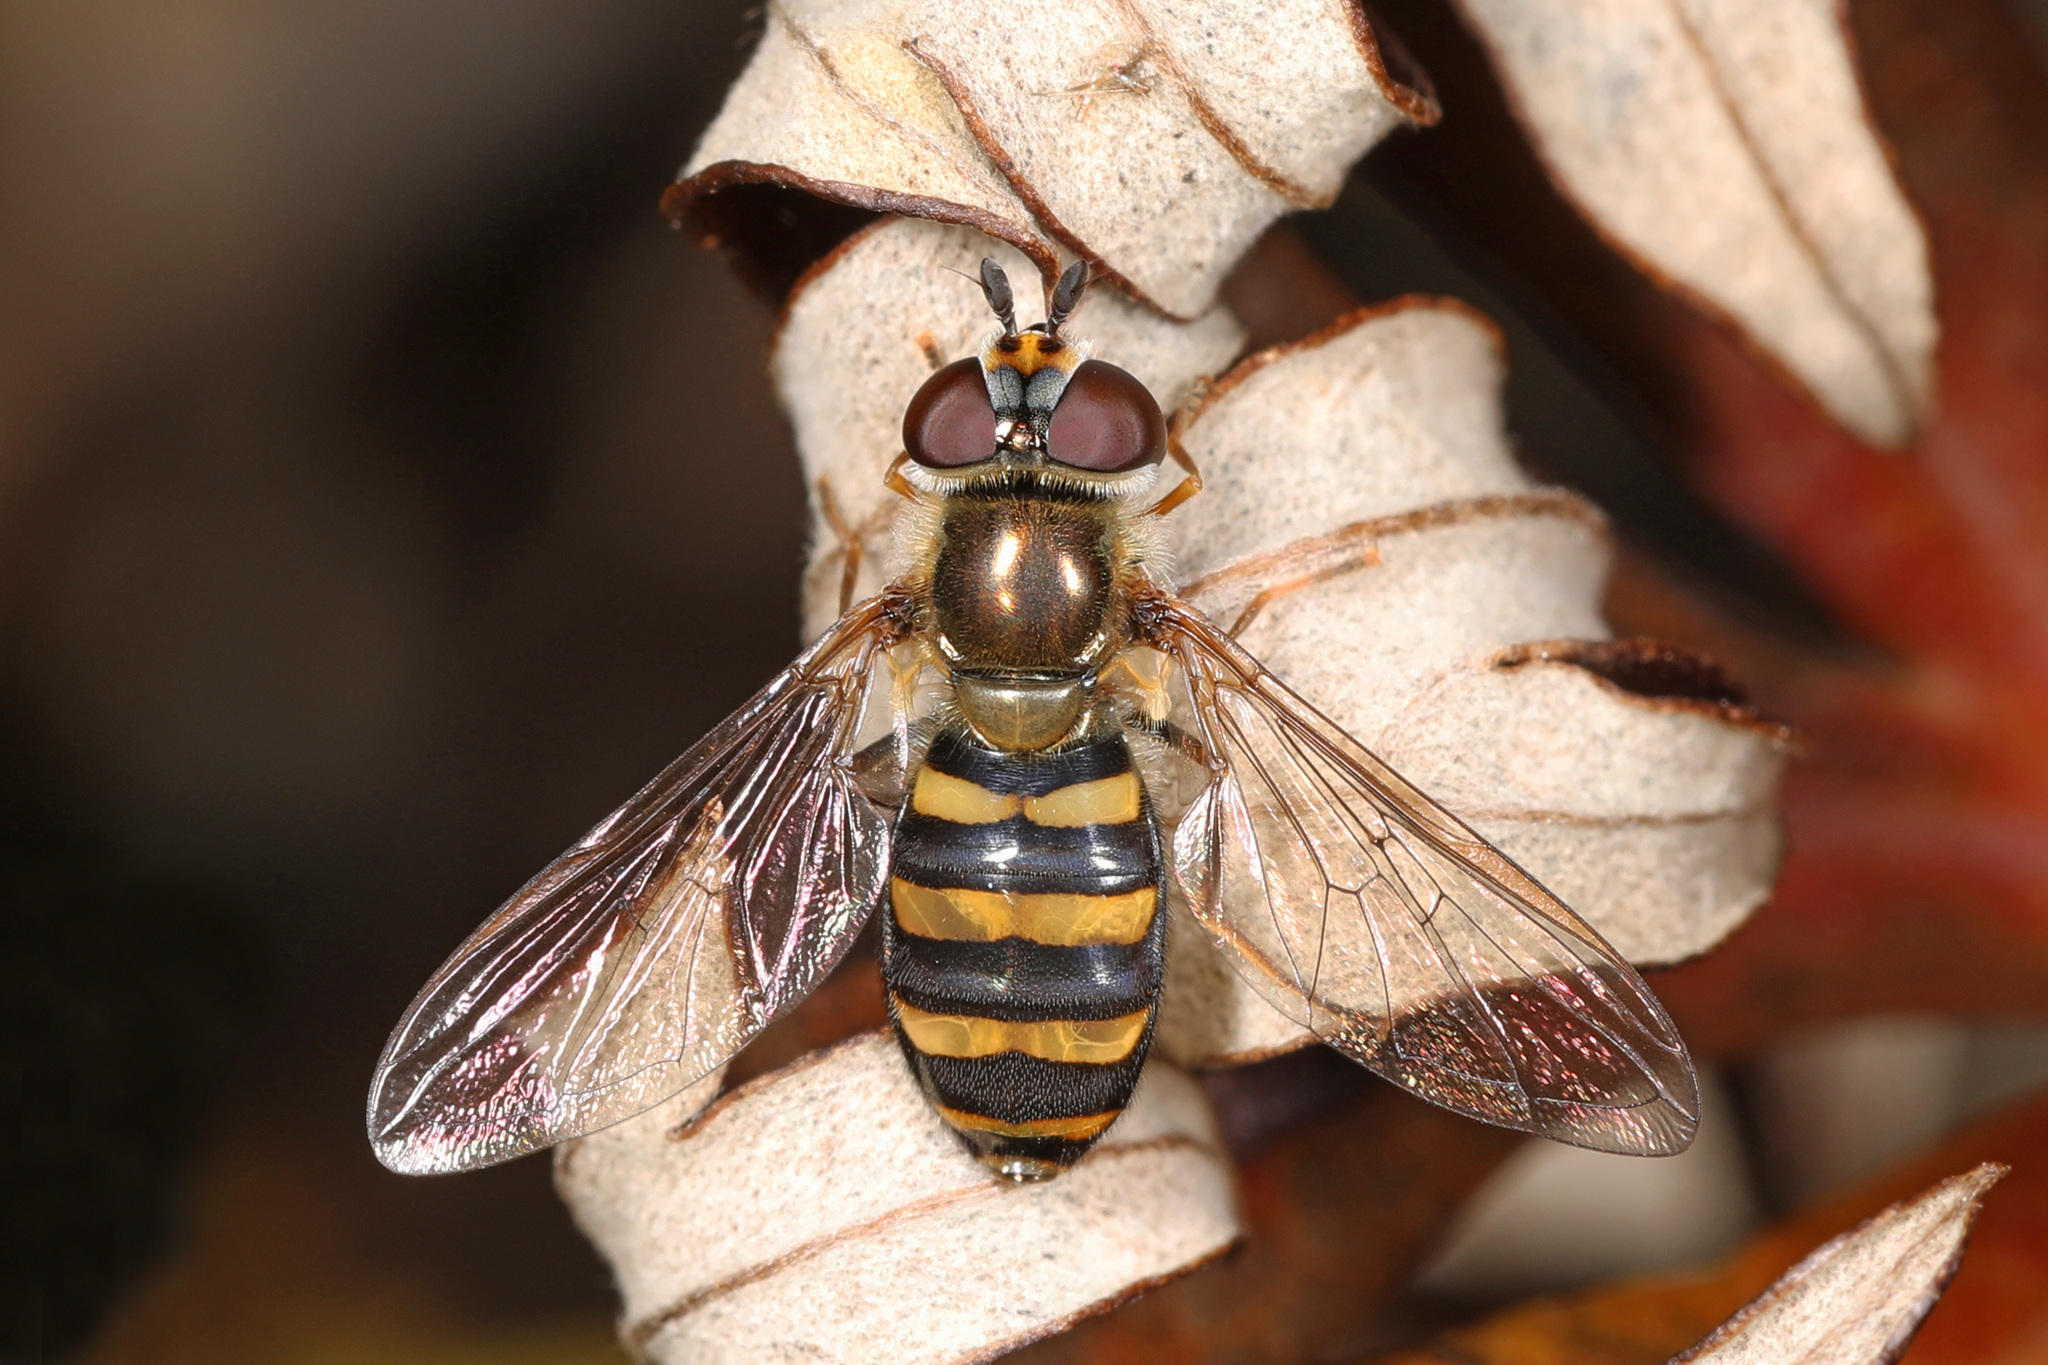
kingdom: Animalia
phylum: Arthropoda
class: Insecta
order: Diptera
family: Syrphidae
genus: Eupeodes
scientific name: Eupeodes
